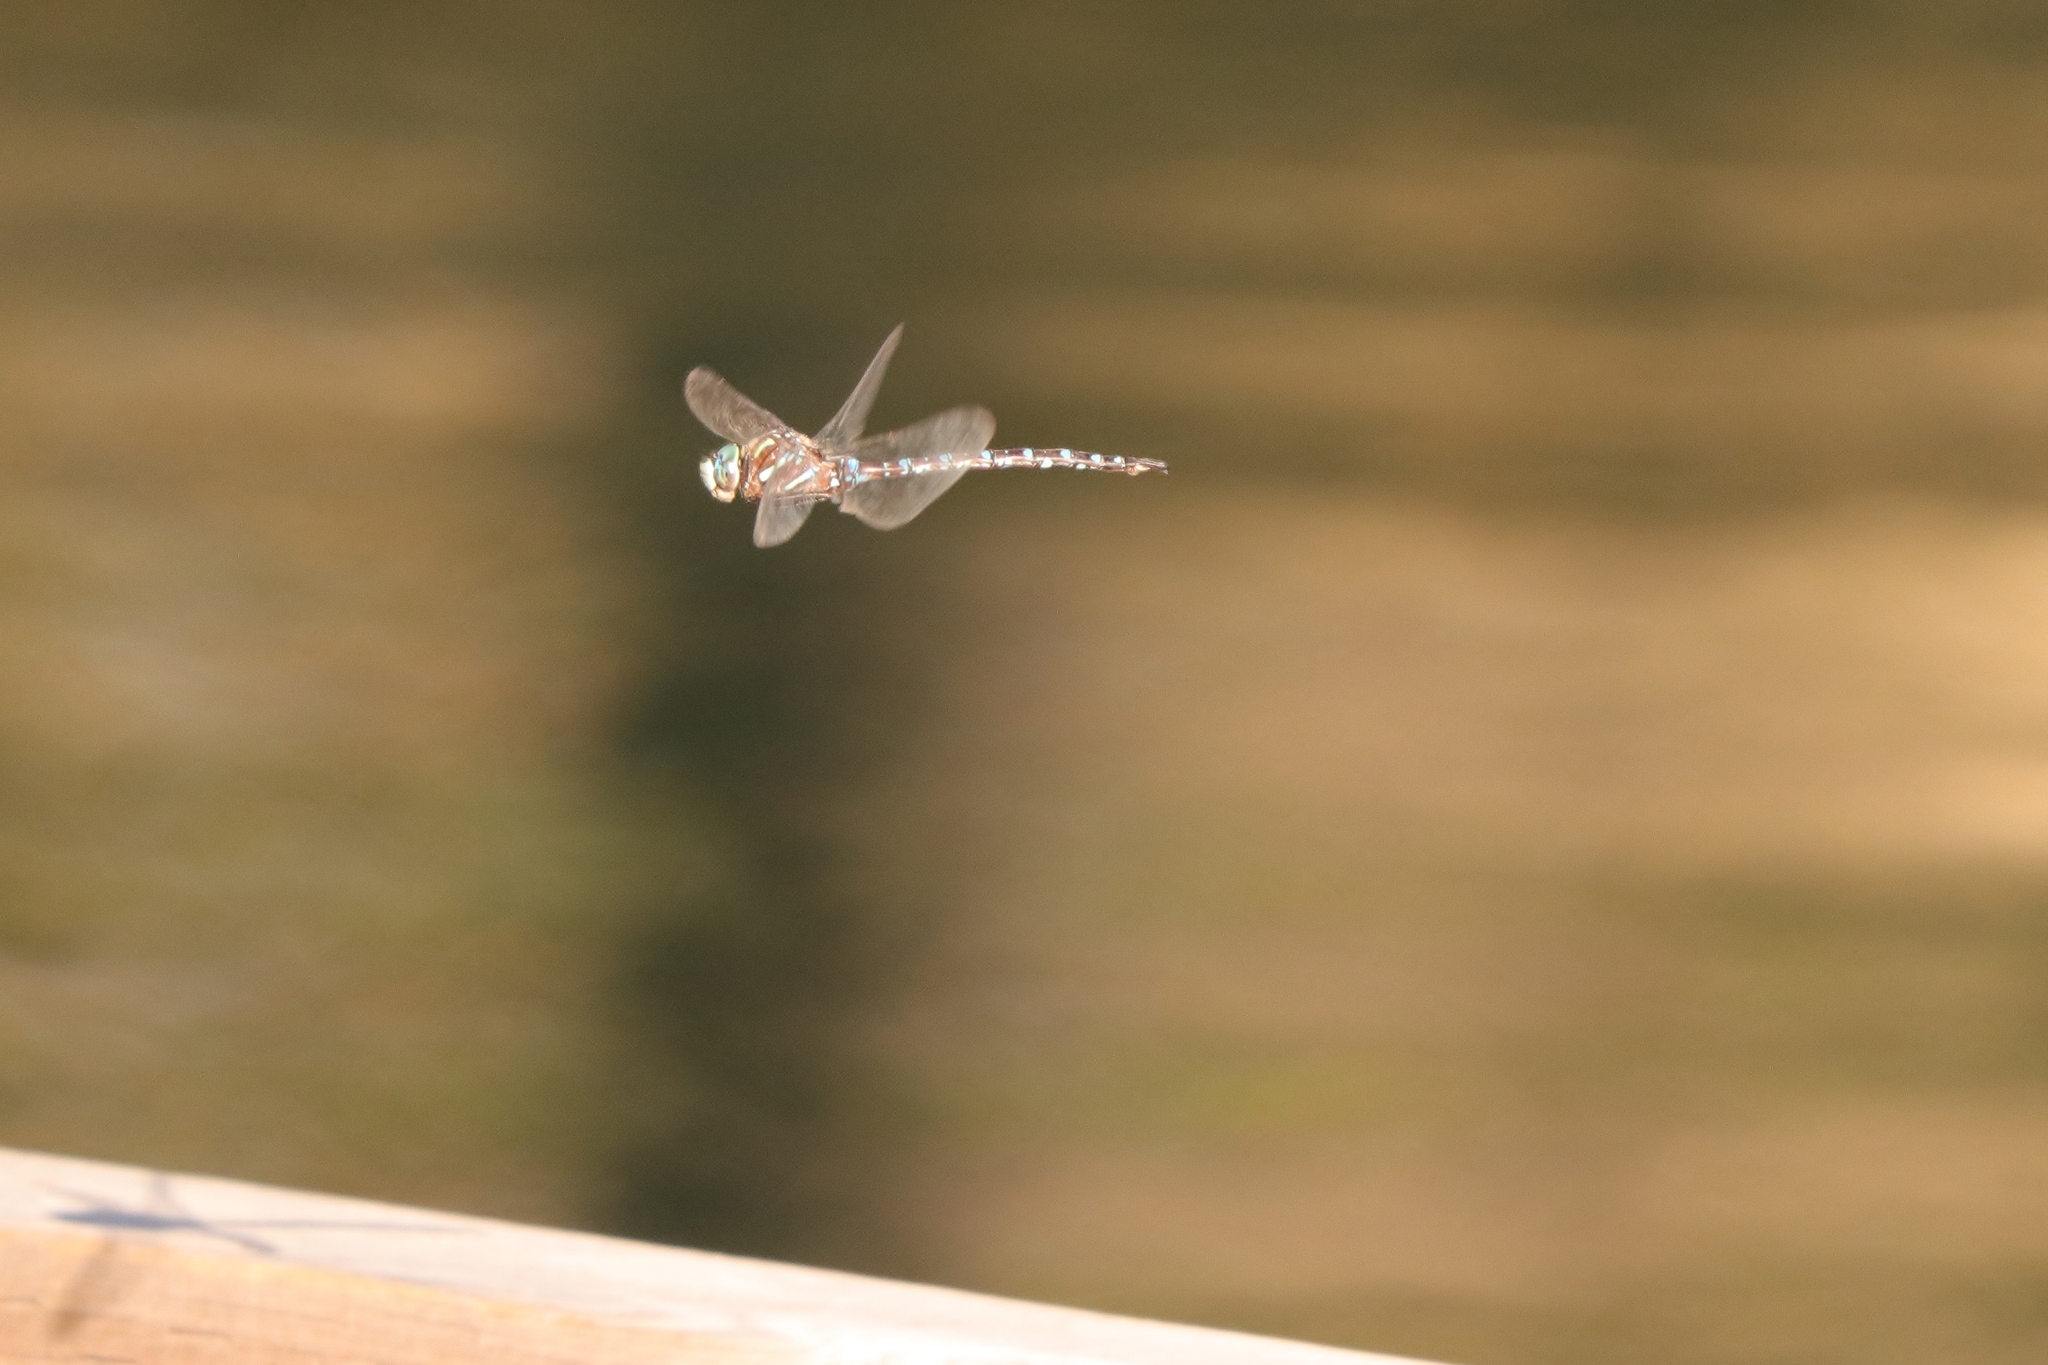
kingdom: Animalia
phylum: Arthropoda
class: Insecta
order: Odonata
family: Aeshnidae
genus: Aeshna
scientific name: Aeshna umbrosa
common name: Shadow darner
